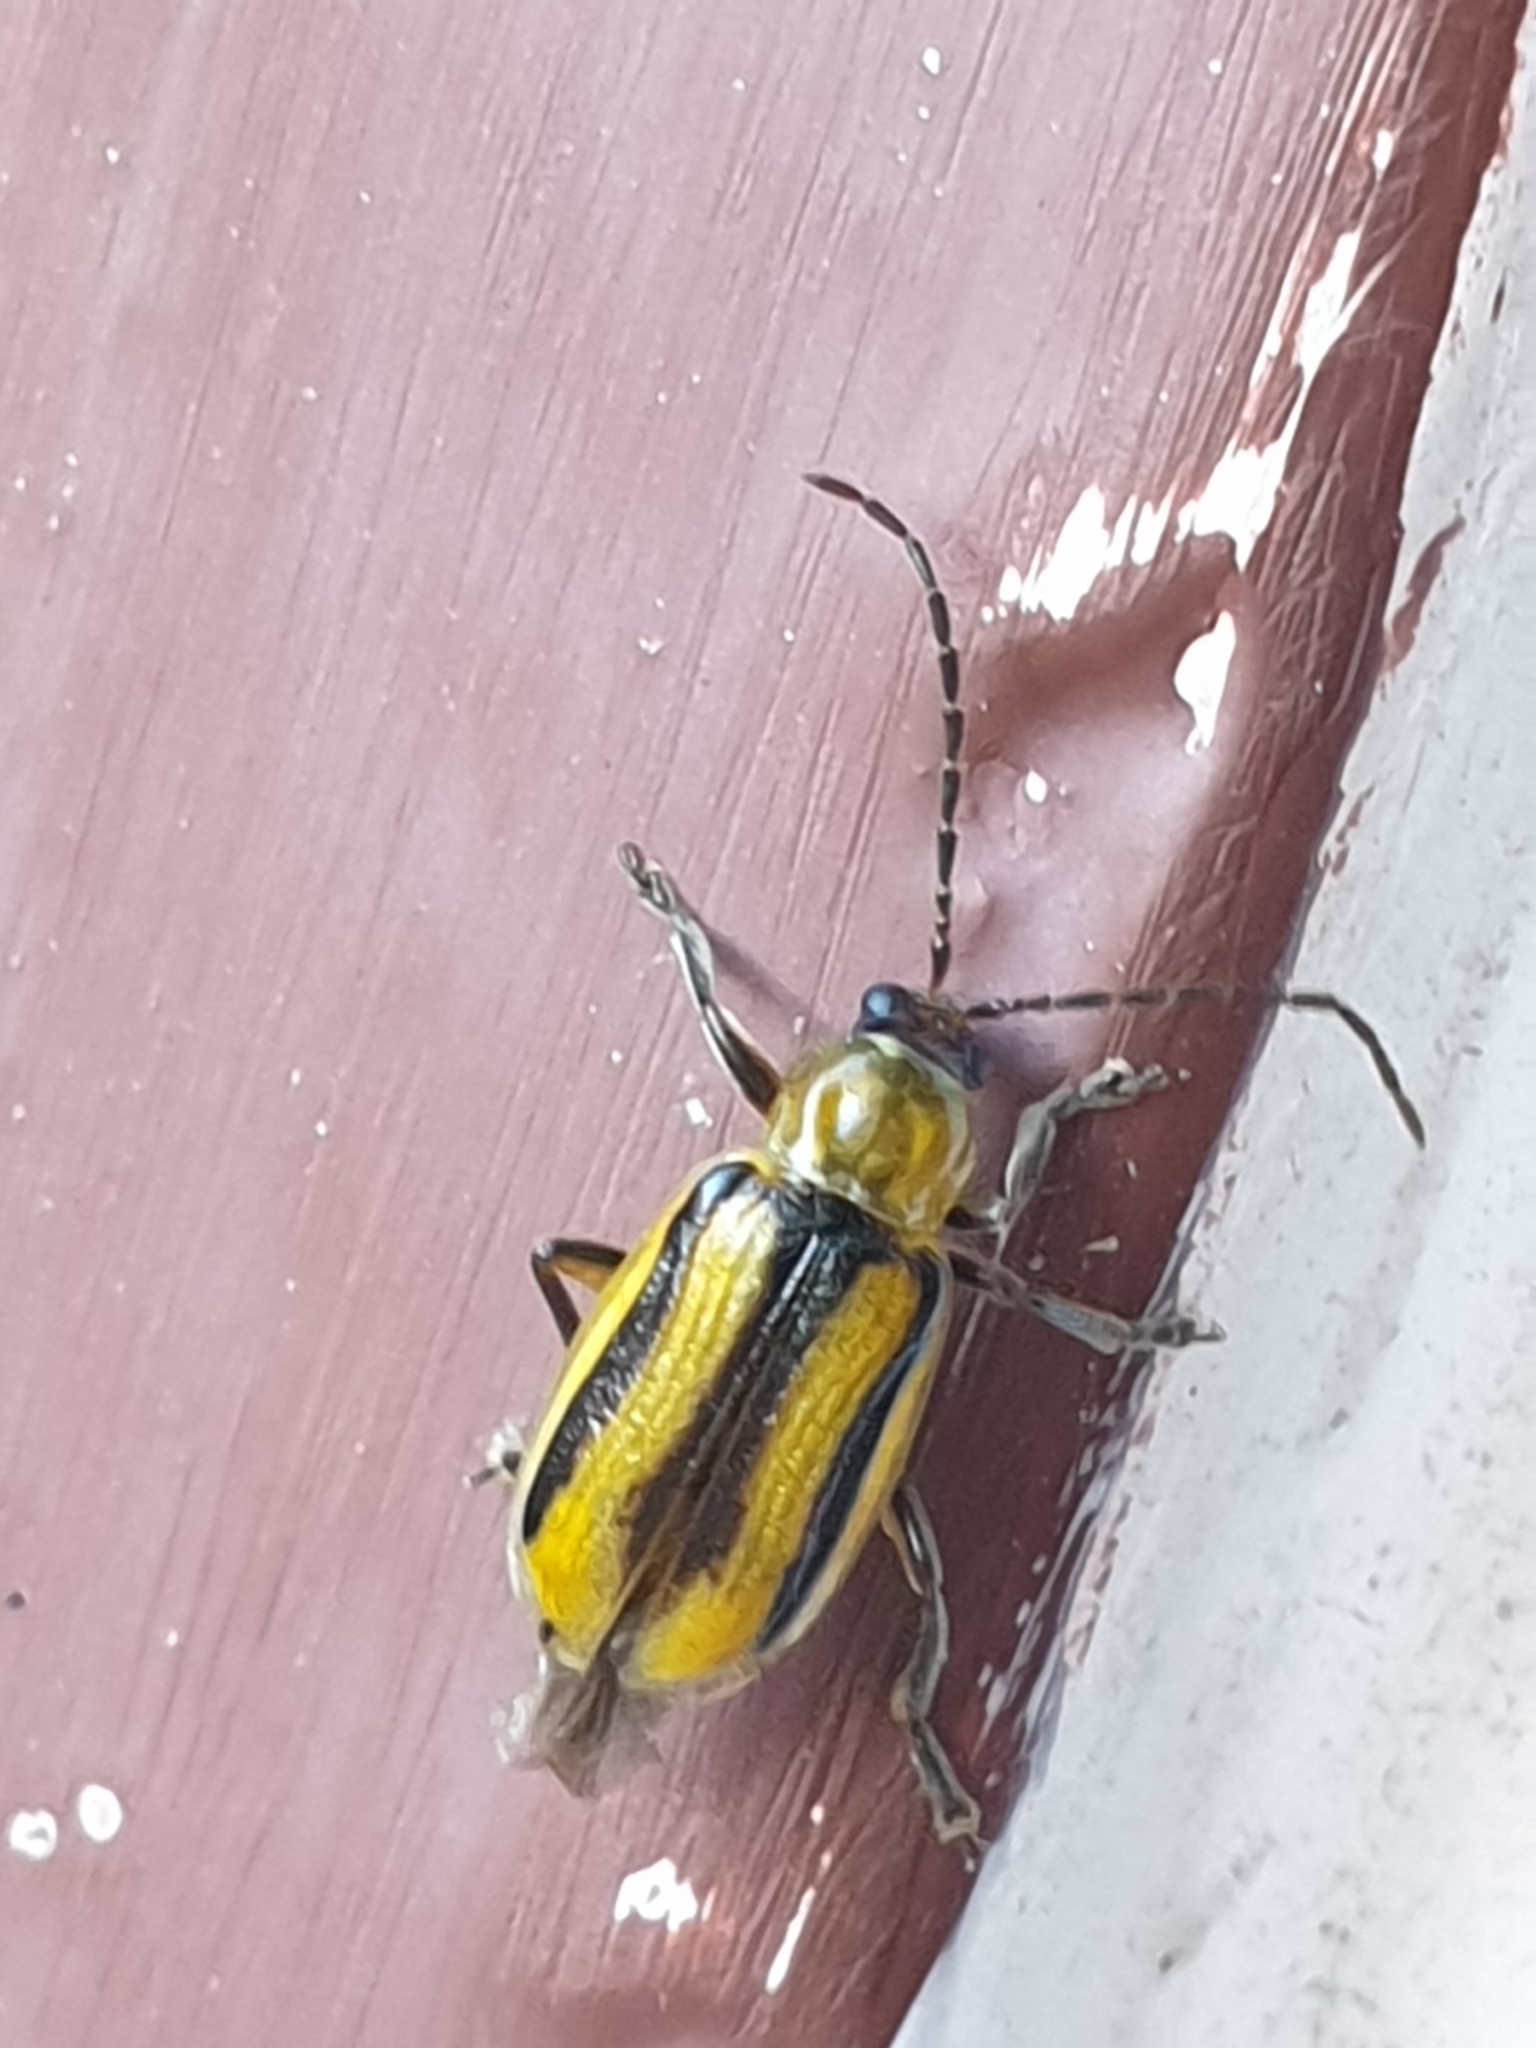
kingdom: Animalia
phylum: Arthropoda
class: Insecta
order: Coleoptera
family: Chrysomelidae
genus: Diabrotica
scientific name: Diabrotica virgifera
